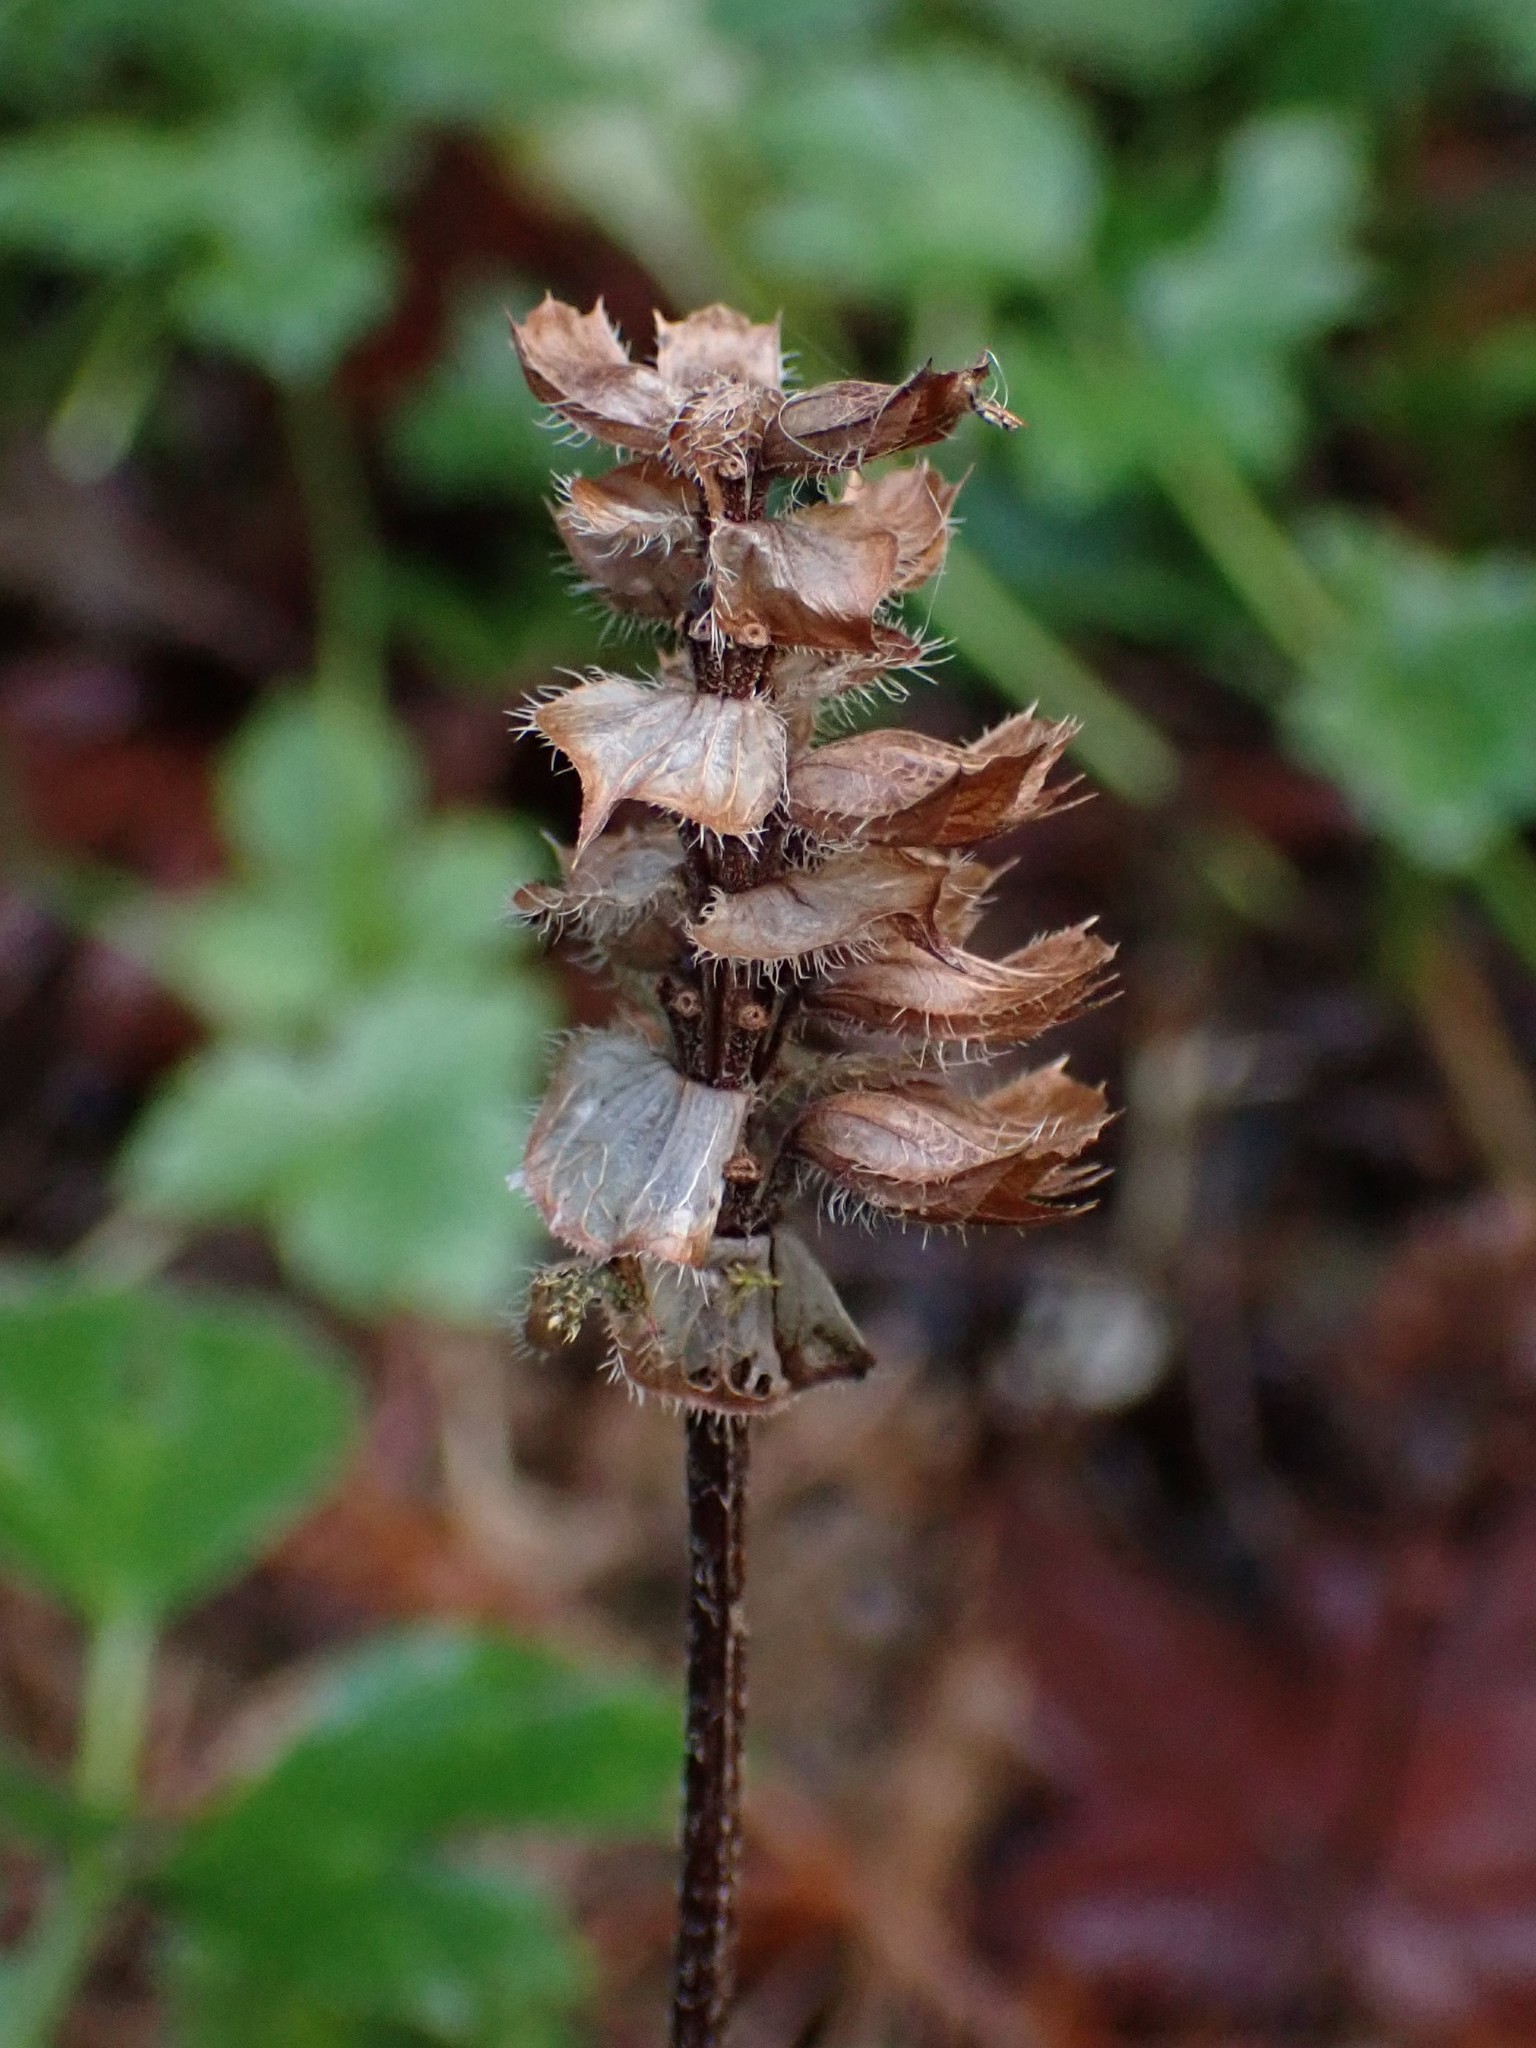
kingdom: Plantae
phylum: Tracheophyta
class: Magnoliopsida
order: Lamiales
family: Lamiaceae
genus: Prunella
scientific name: Prunella vulgaris
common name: Heal-all
